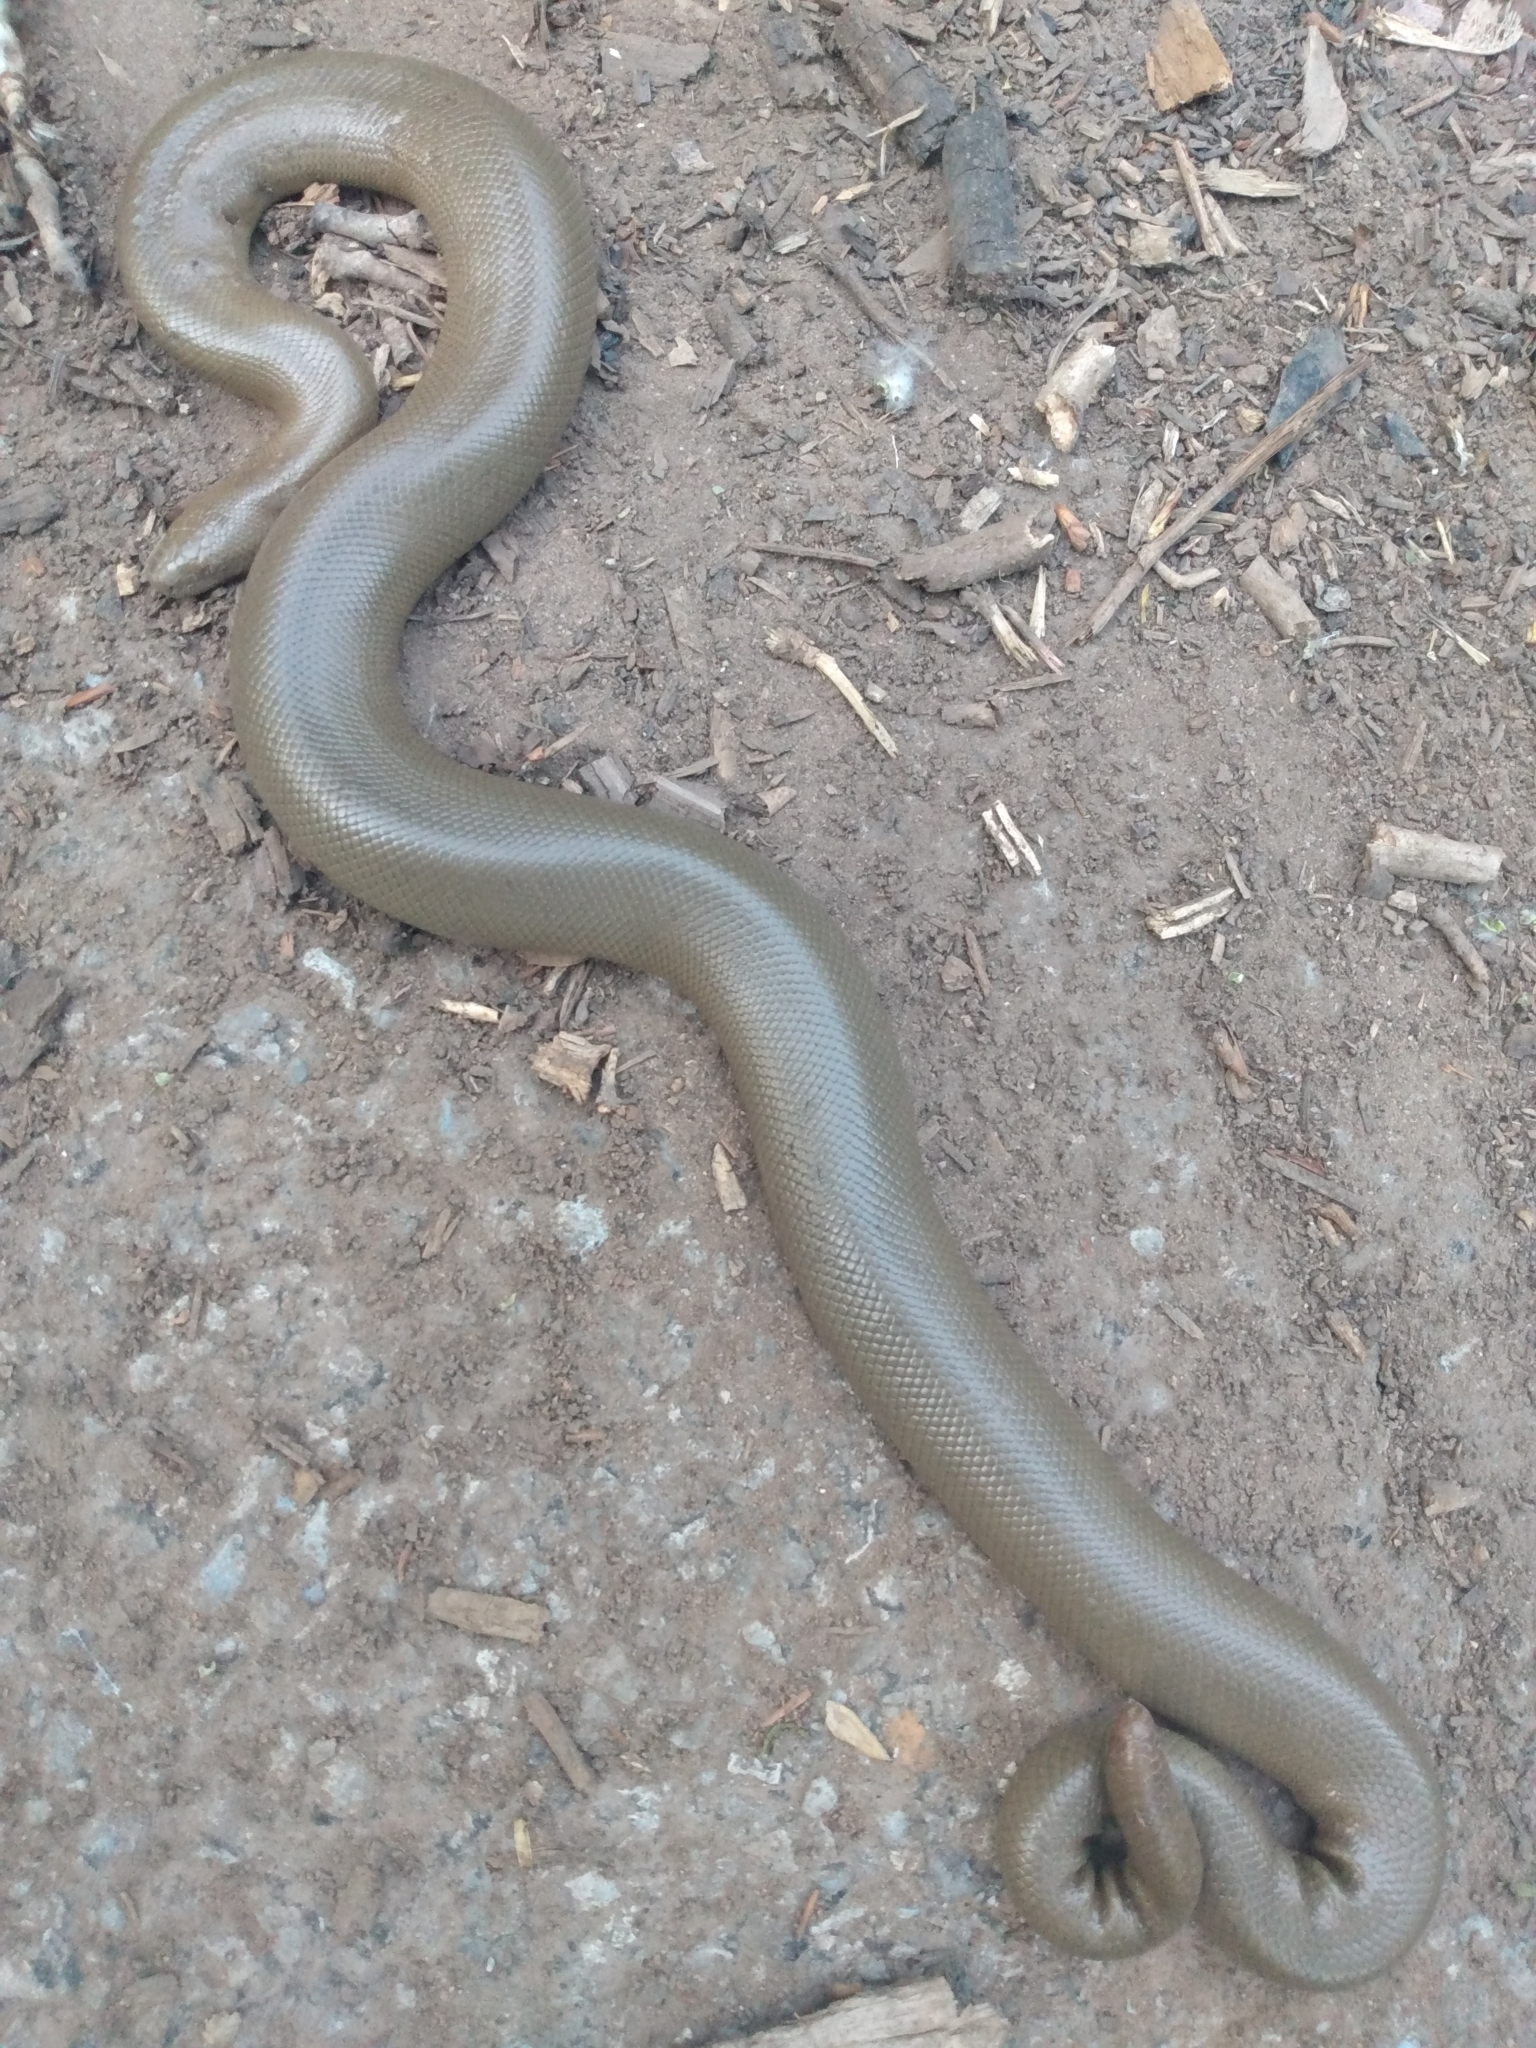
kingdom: Animalia
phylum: Chordata
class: Squamata
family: Boidae
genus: Charina
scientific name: Charina bottae
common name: Northern rubber boa
